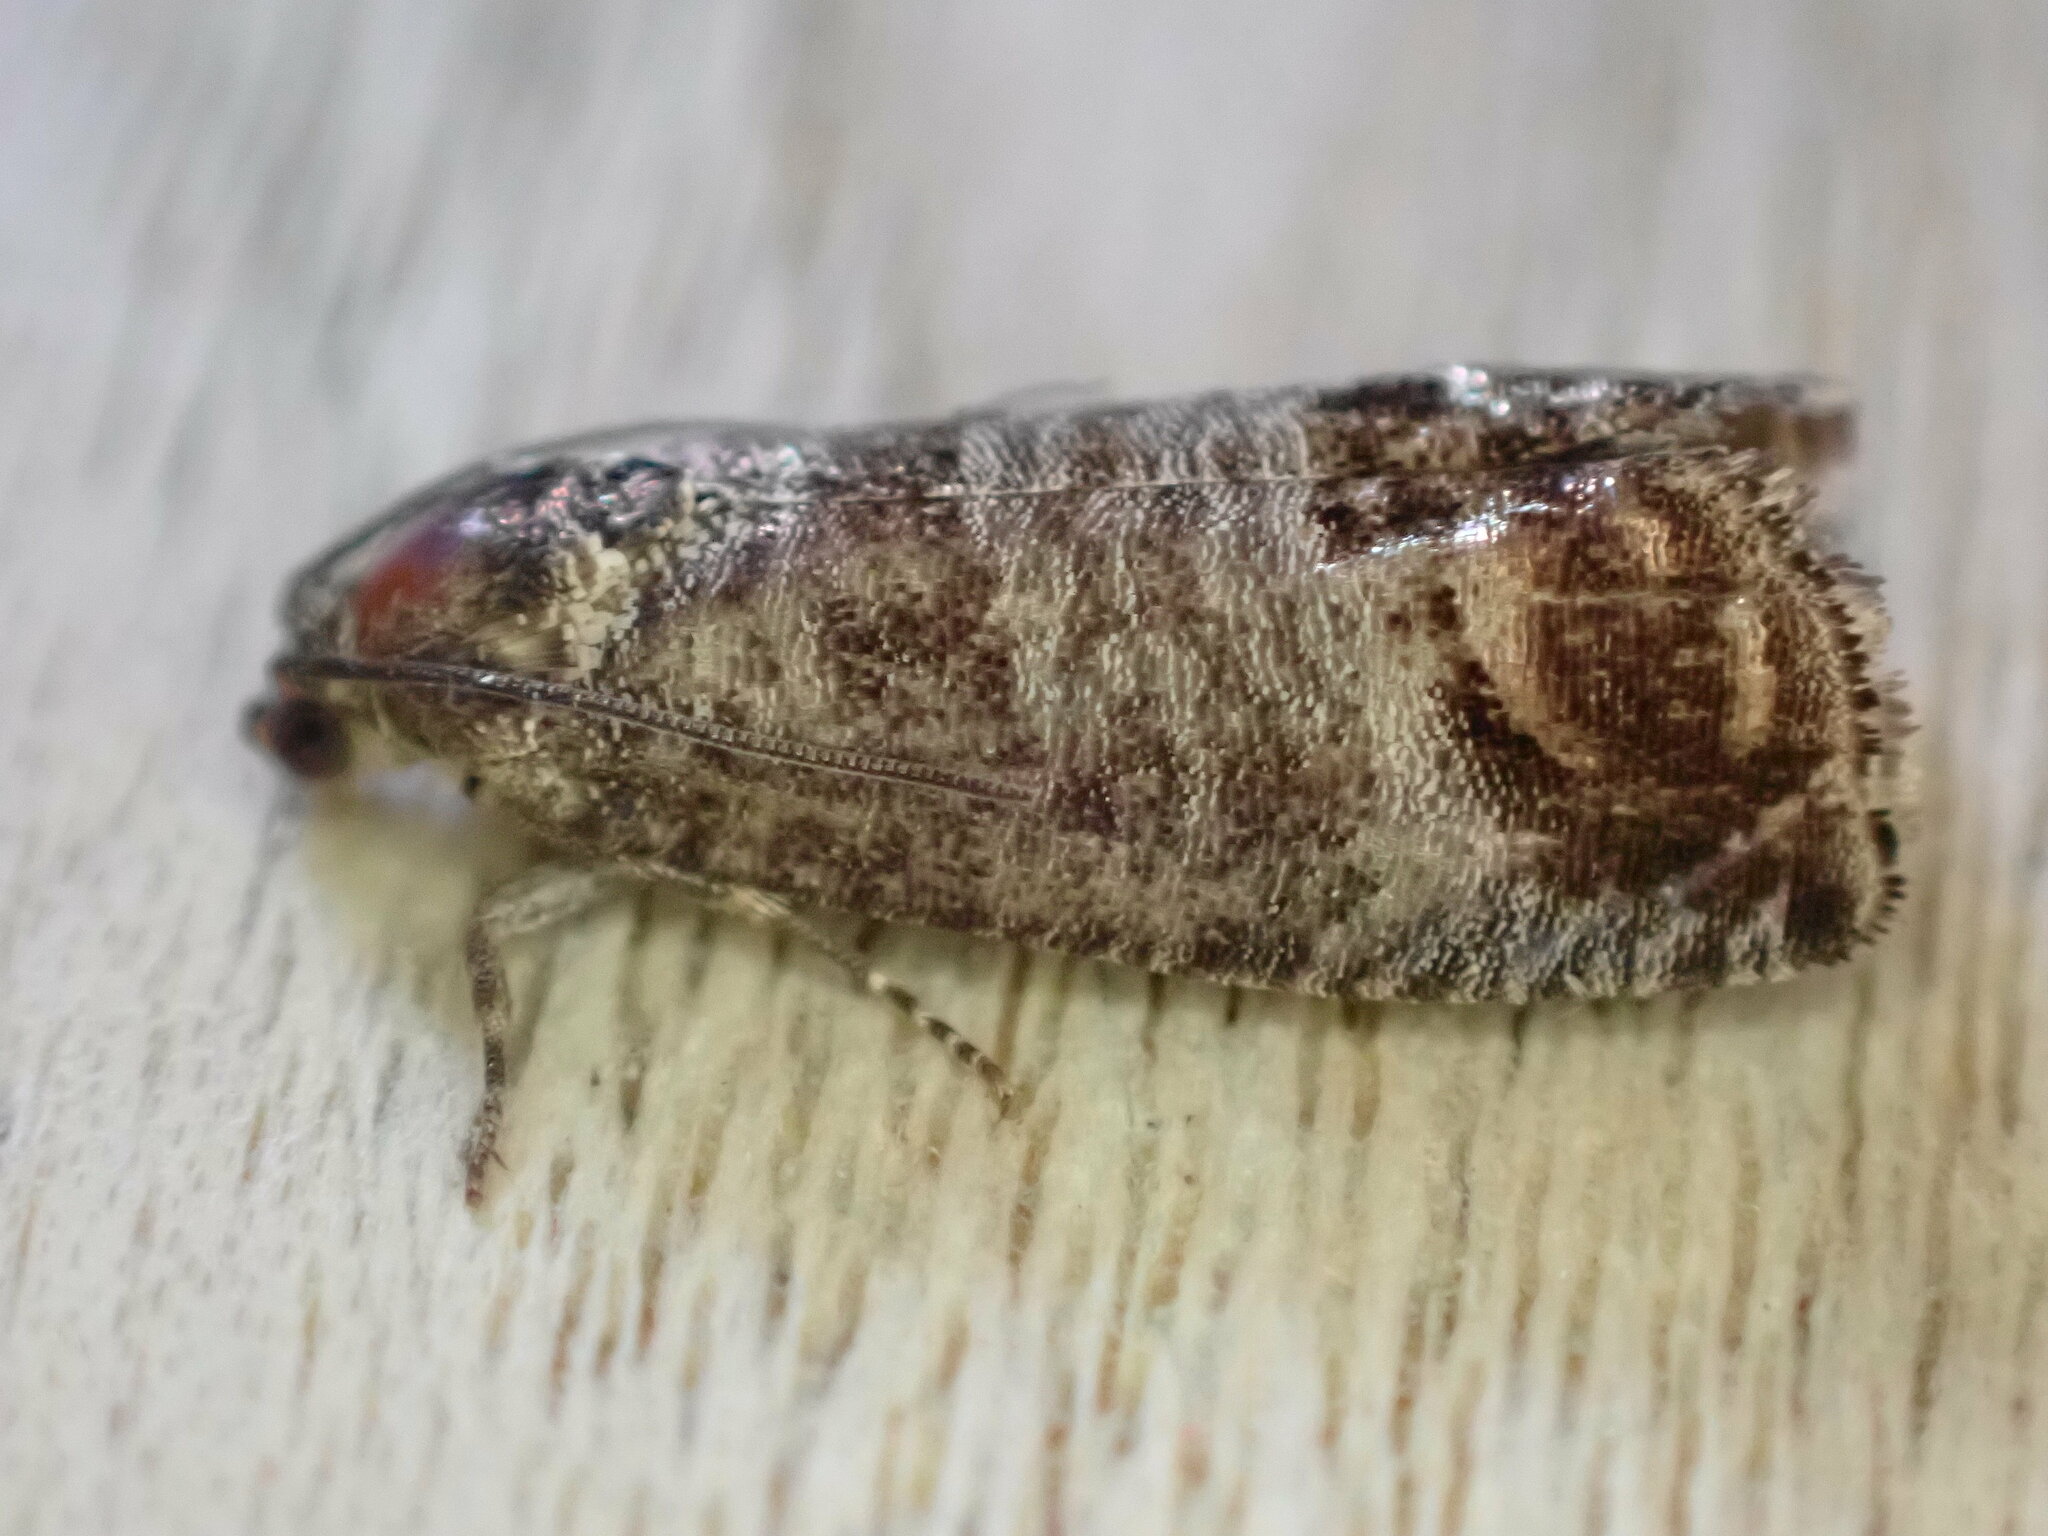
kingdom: Animalia
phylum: Arthropoda
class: Insecta
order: Lepidoptera
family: Tortricidae
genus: Cydia
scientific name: Cydia pomonella
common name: Codling moth
